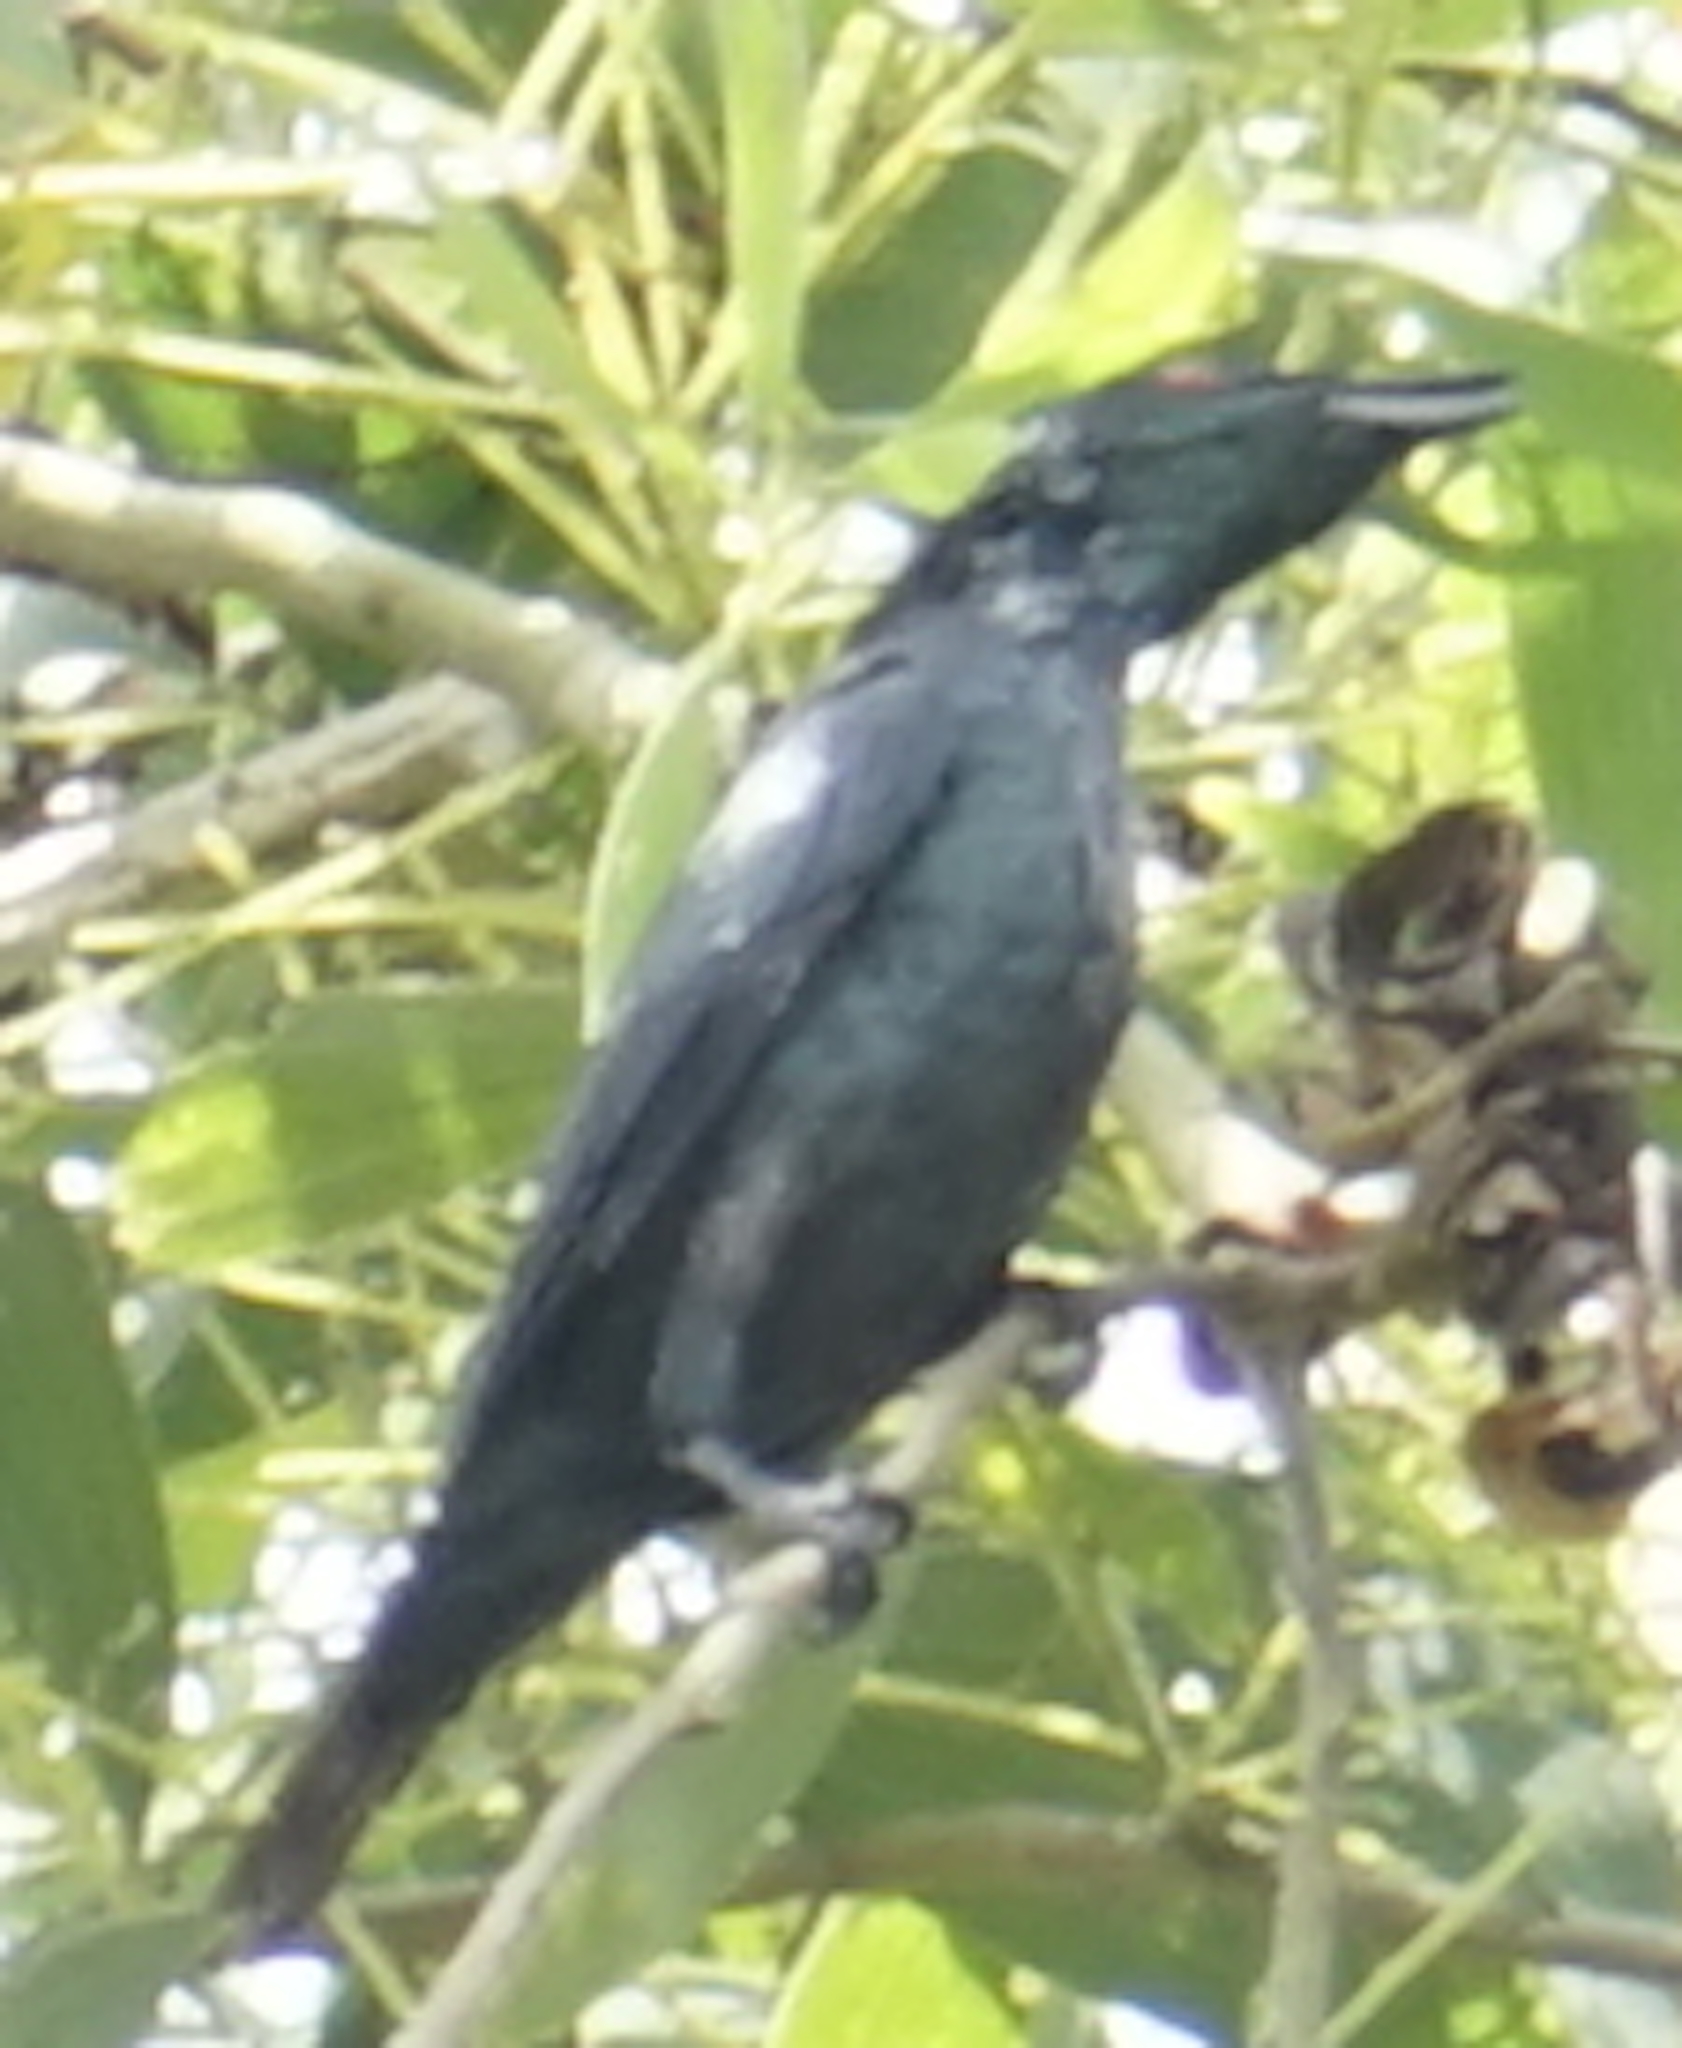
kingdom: Animalia
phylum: Chordata
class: Aves
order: Passeriformes
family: Sturnidae
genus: Aplonis
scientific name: Aplonis panayensis
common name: Asian glossy starling
